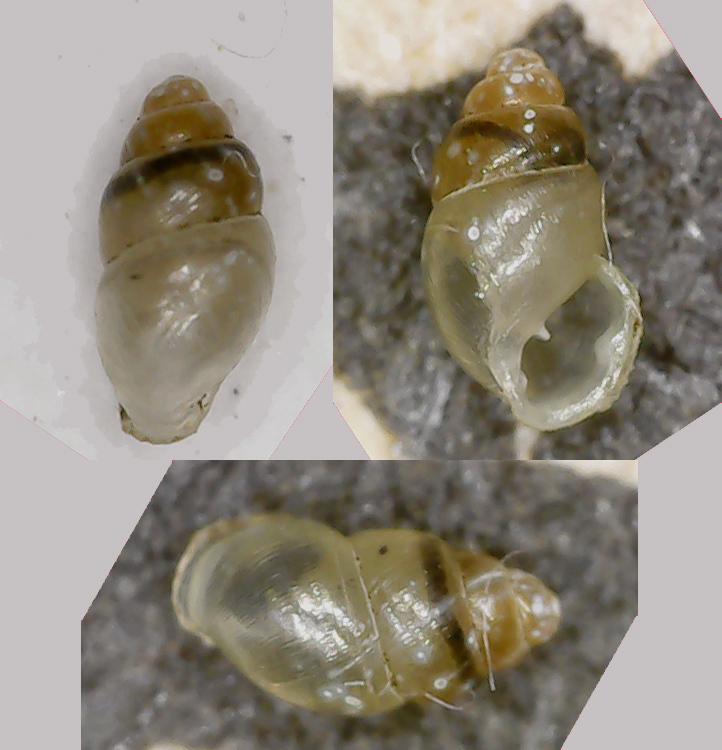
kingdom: Animalia
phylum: Mollusca
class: Gastropoda
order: Ellobiida
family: Ellobiidae
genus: Carychium
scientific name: Carychium minimum
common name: Short-toothed herald snail
